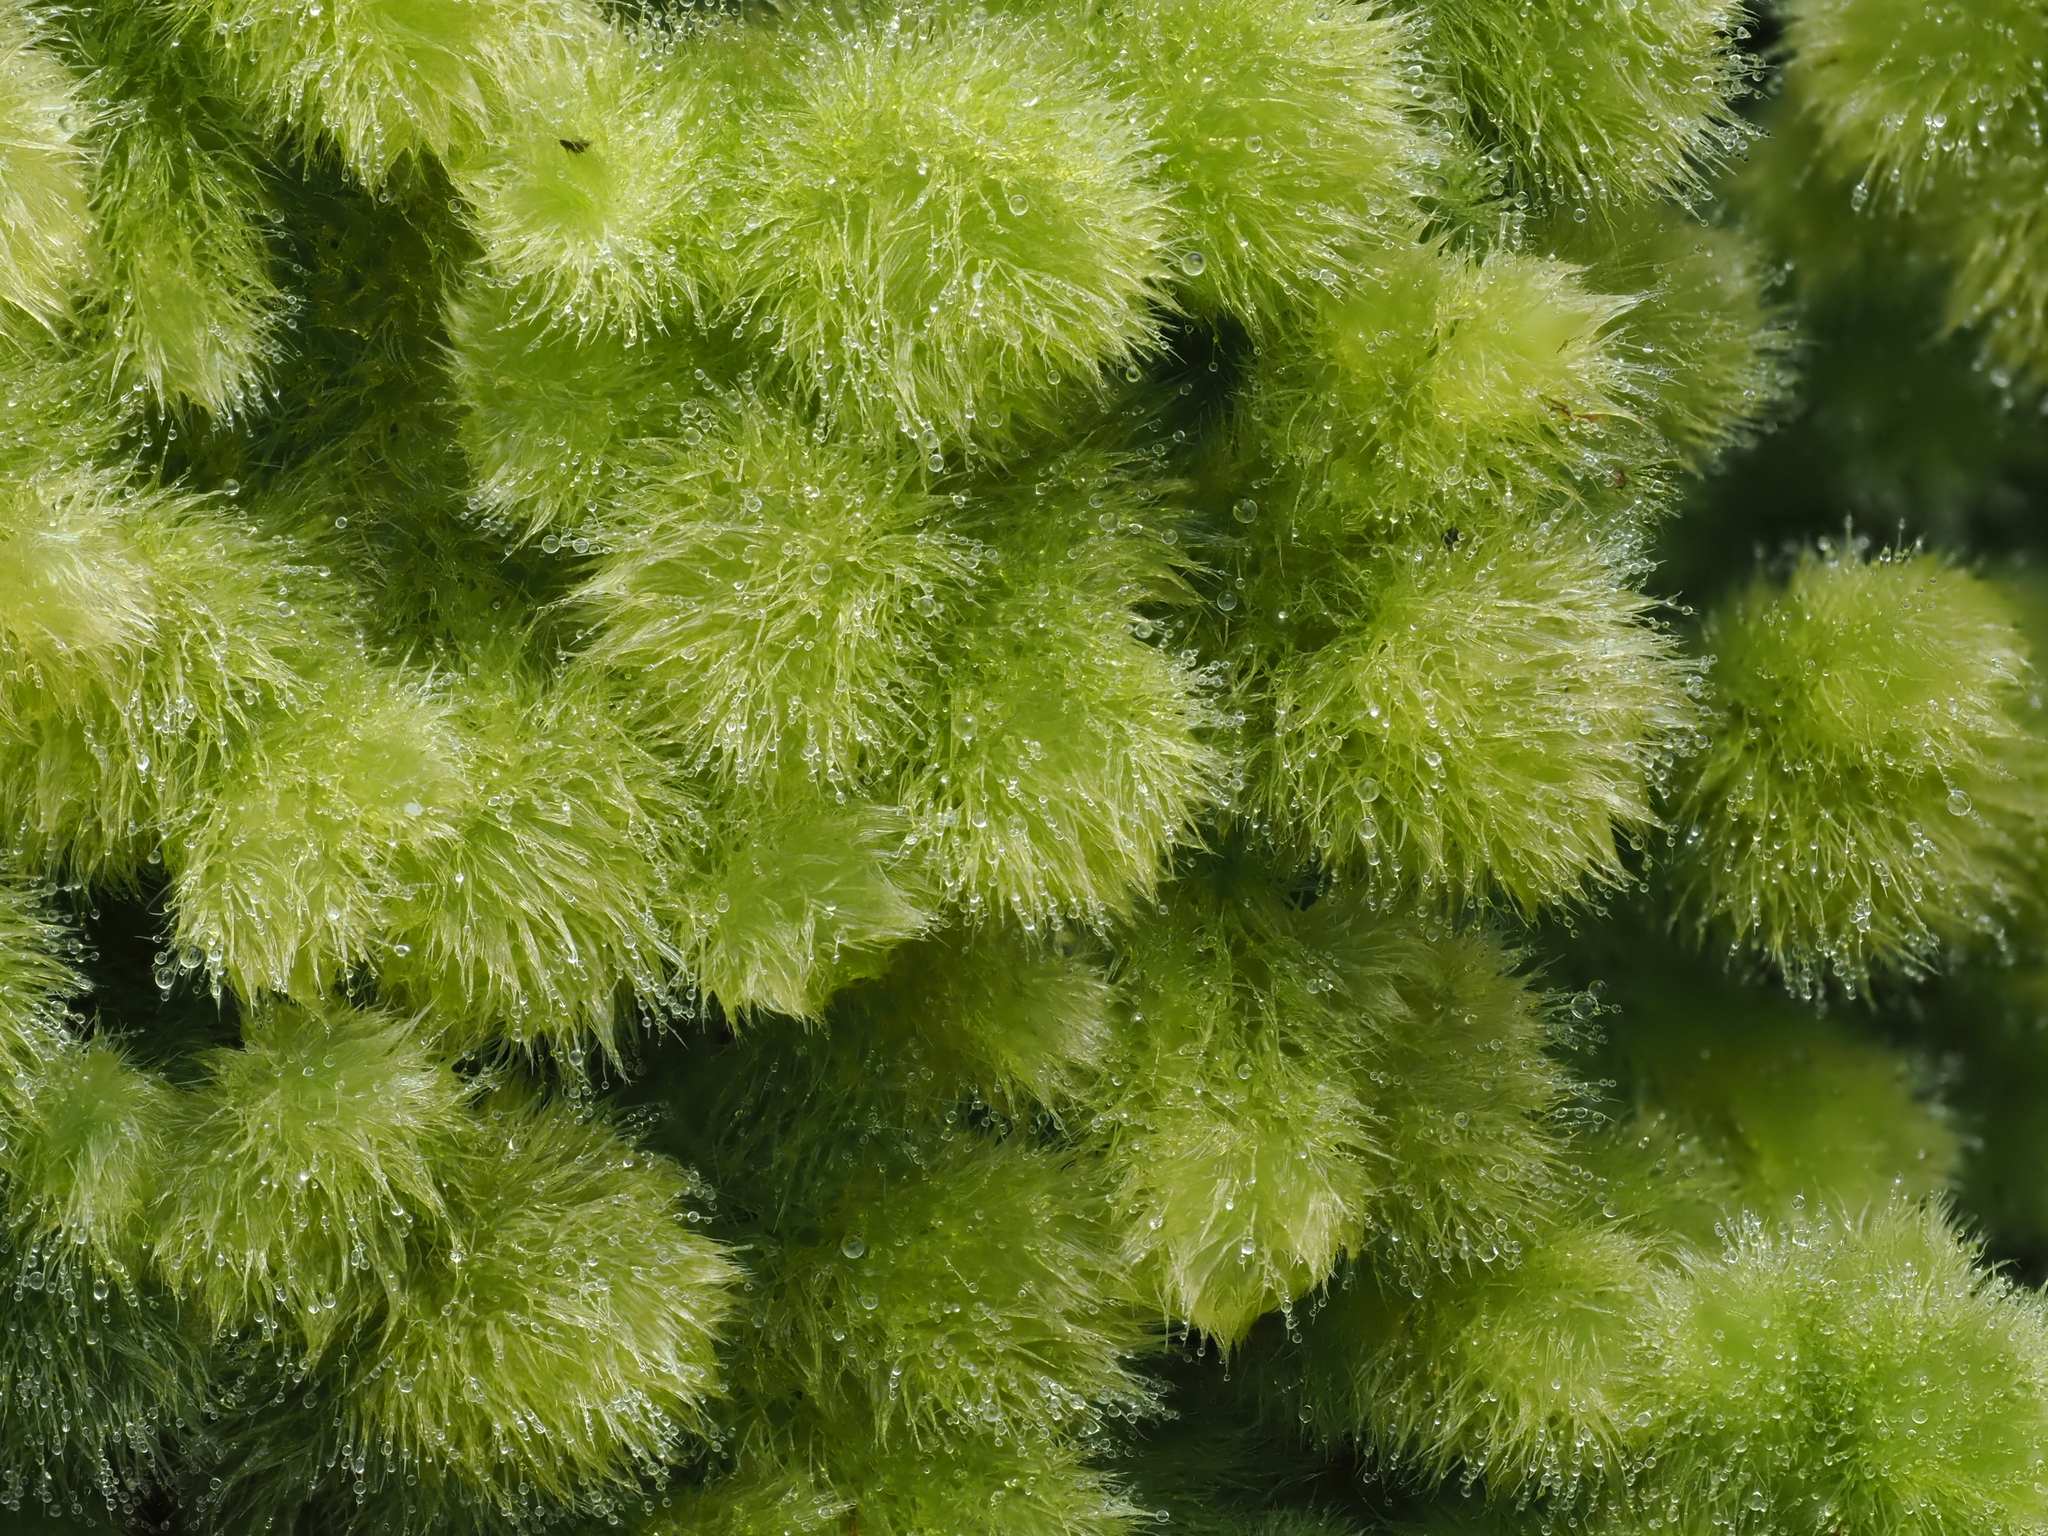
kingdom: Plantae
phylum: Marchantiophyta
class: Jungermanniopsida
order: Jungermanniales
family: Trichocoleaceae
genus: Leiomitra
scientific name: Leiomitra lanata
